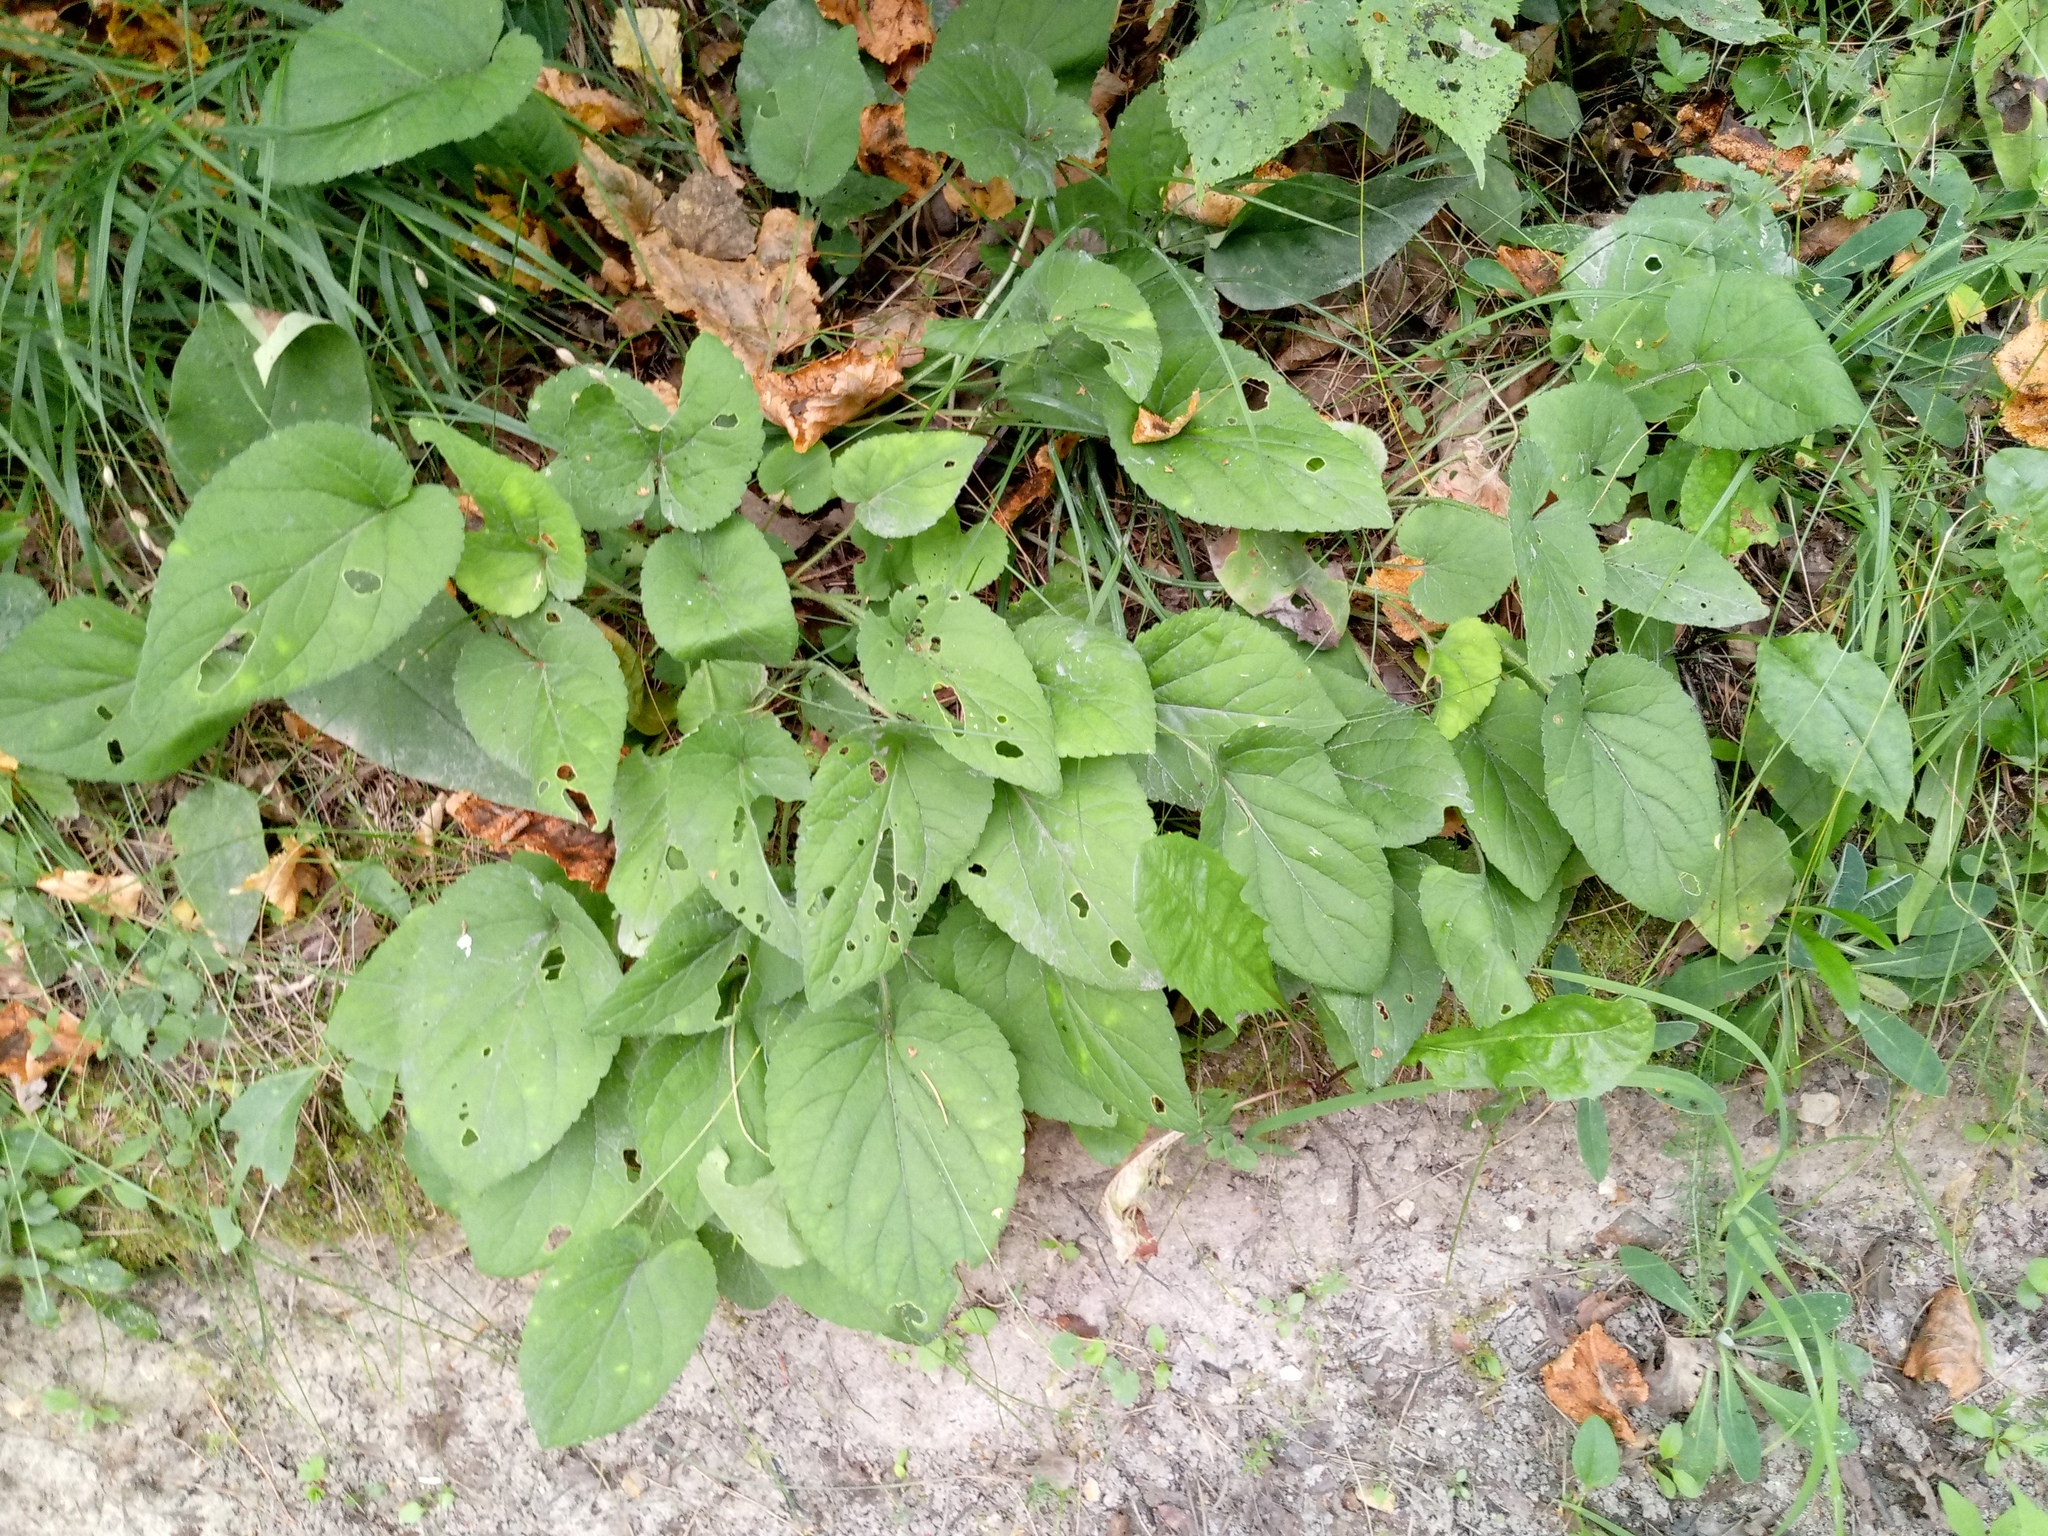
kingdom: Plantae
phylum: Tracheophyta
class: Magnoliopsida
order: Malpighiales
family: Violaceae
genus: Viola
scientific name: Viola hirta
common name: Hairy violet
